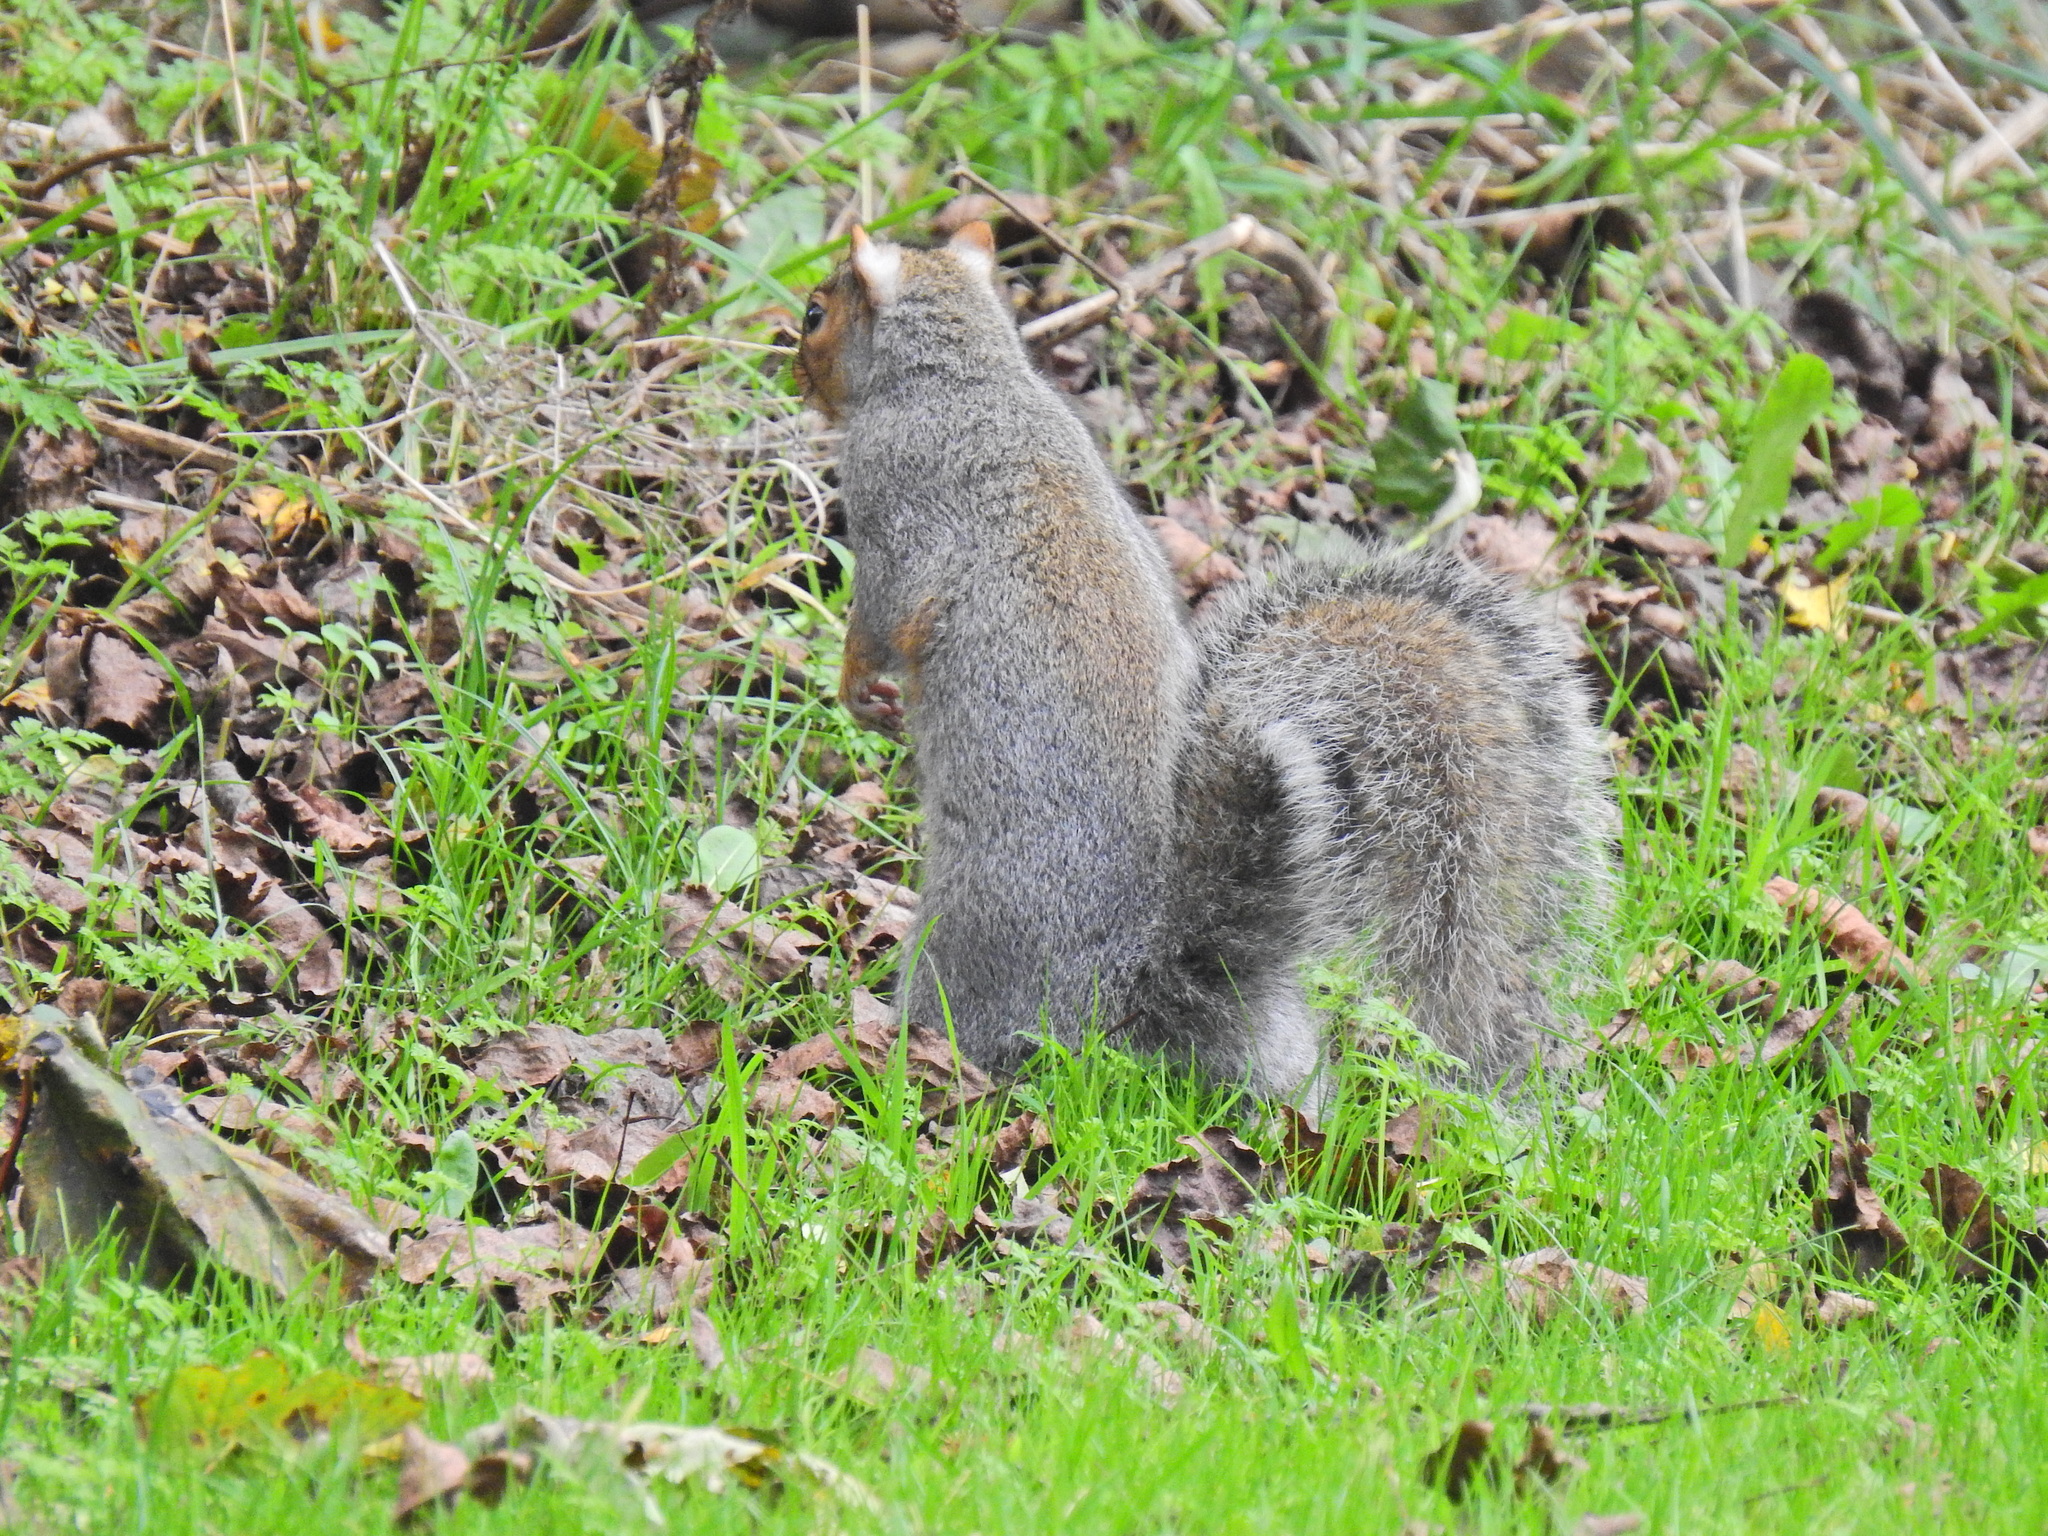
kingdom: Animalia
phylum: Chordata
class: Mammalia
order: Rodentia
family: Sciuridae
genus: Sciurus
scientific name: Sciurus carolinensis
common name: Eastern gray squirrel
